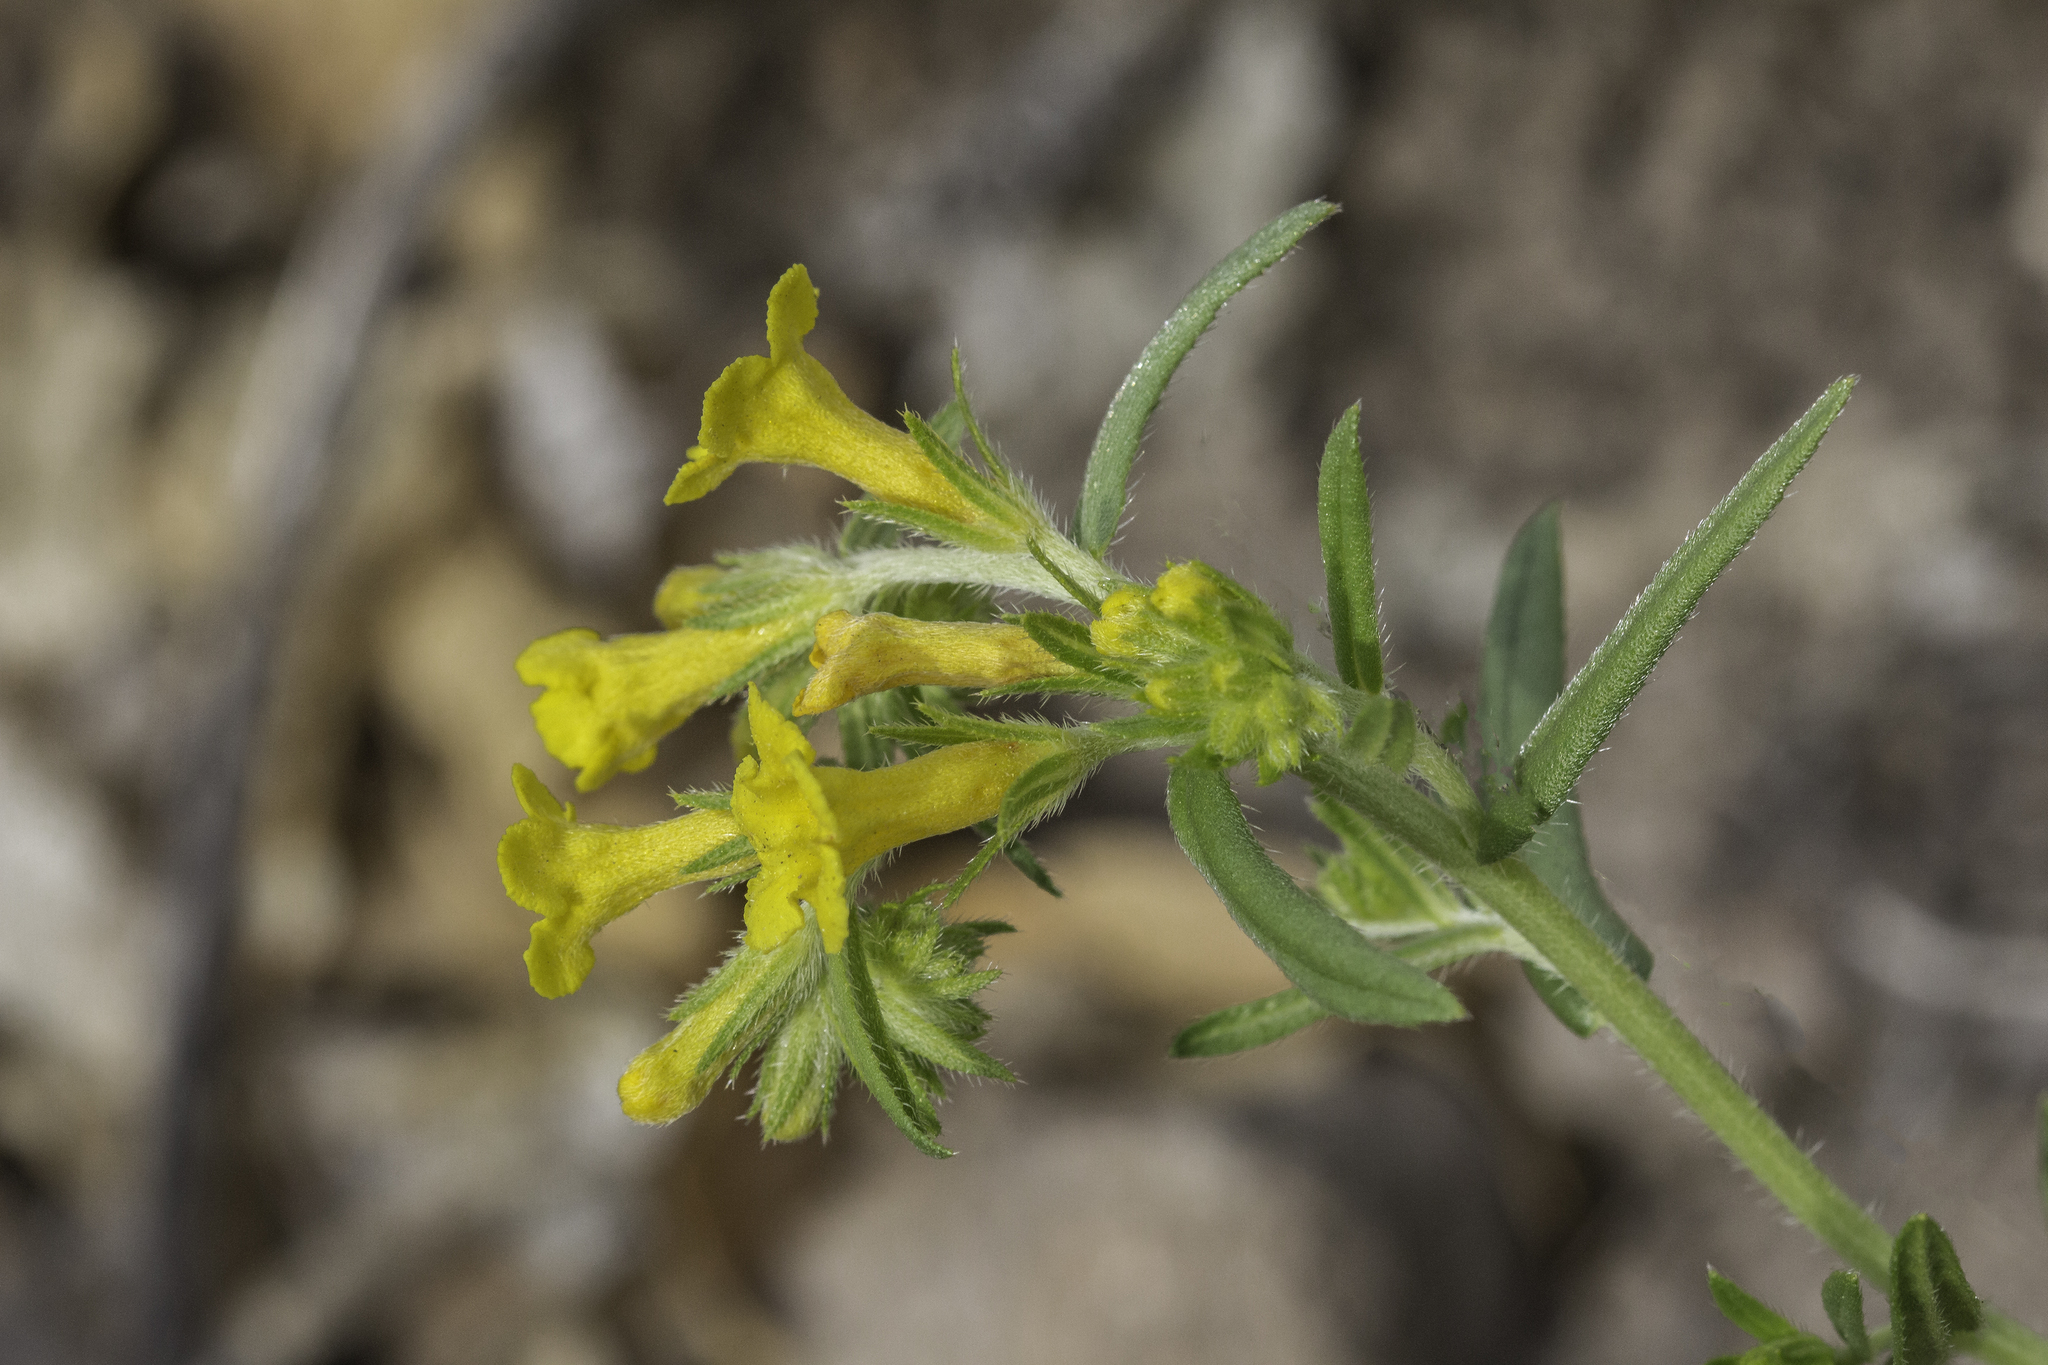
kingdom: Plantae
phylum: Tracheophyta
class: Magnoliopsida
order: Boraginales
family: Boraginaceae
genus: Lithospermum
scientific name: Lithospermum multiflorum
